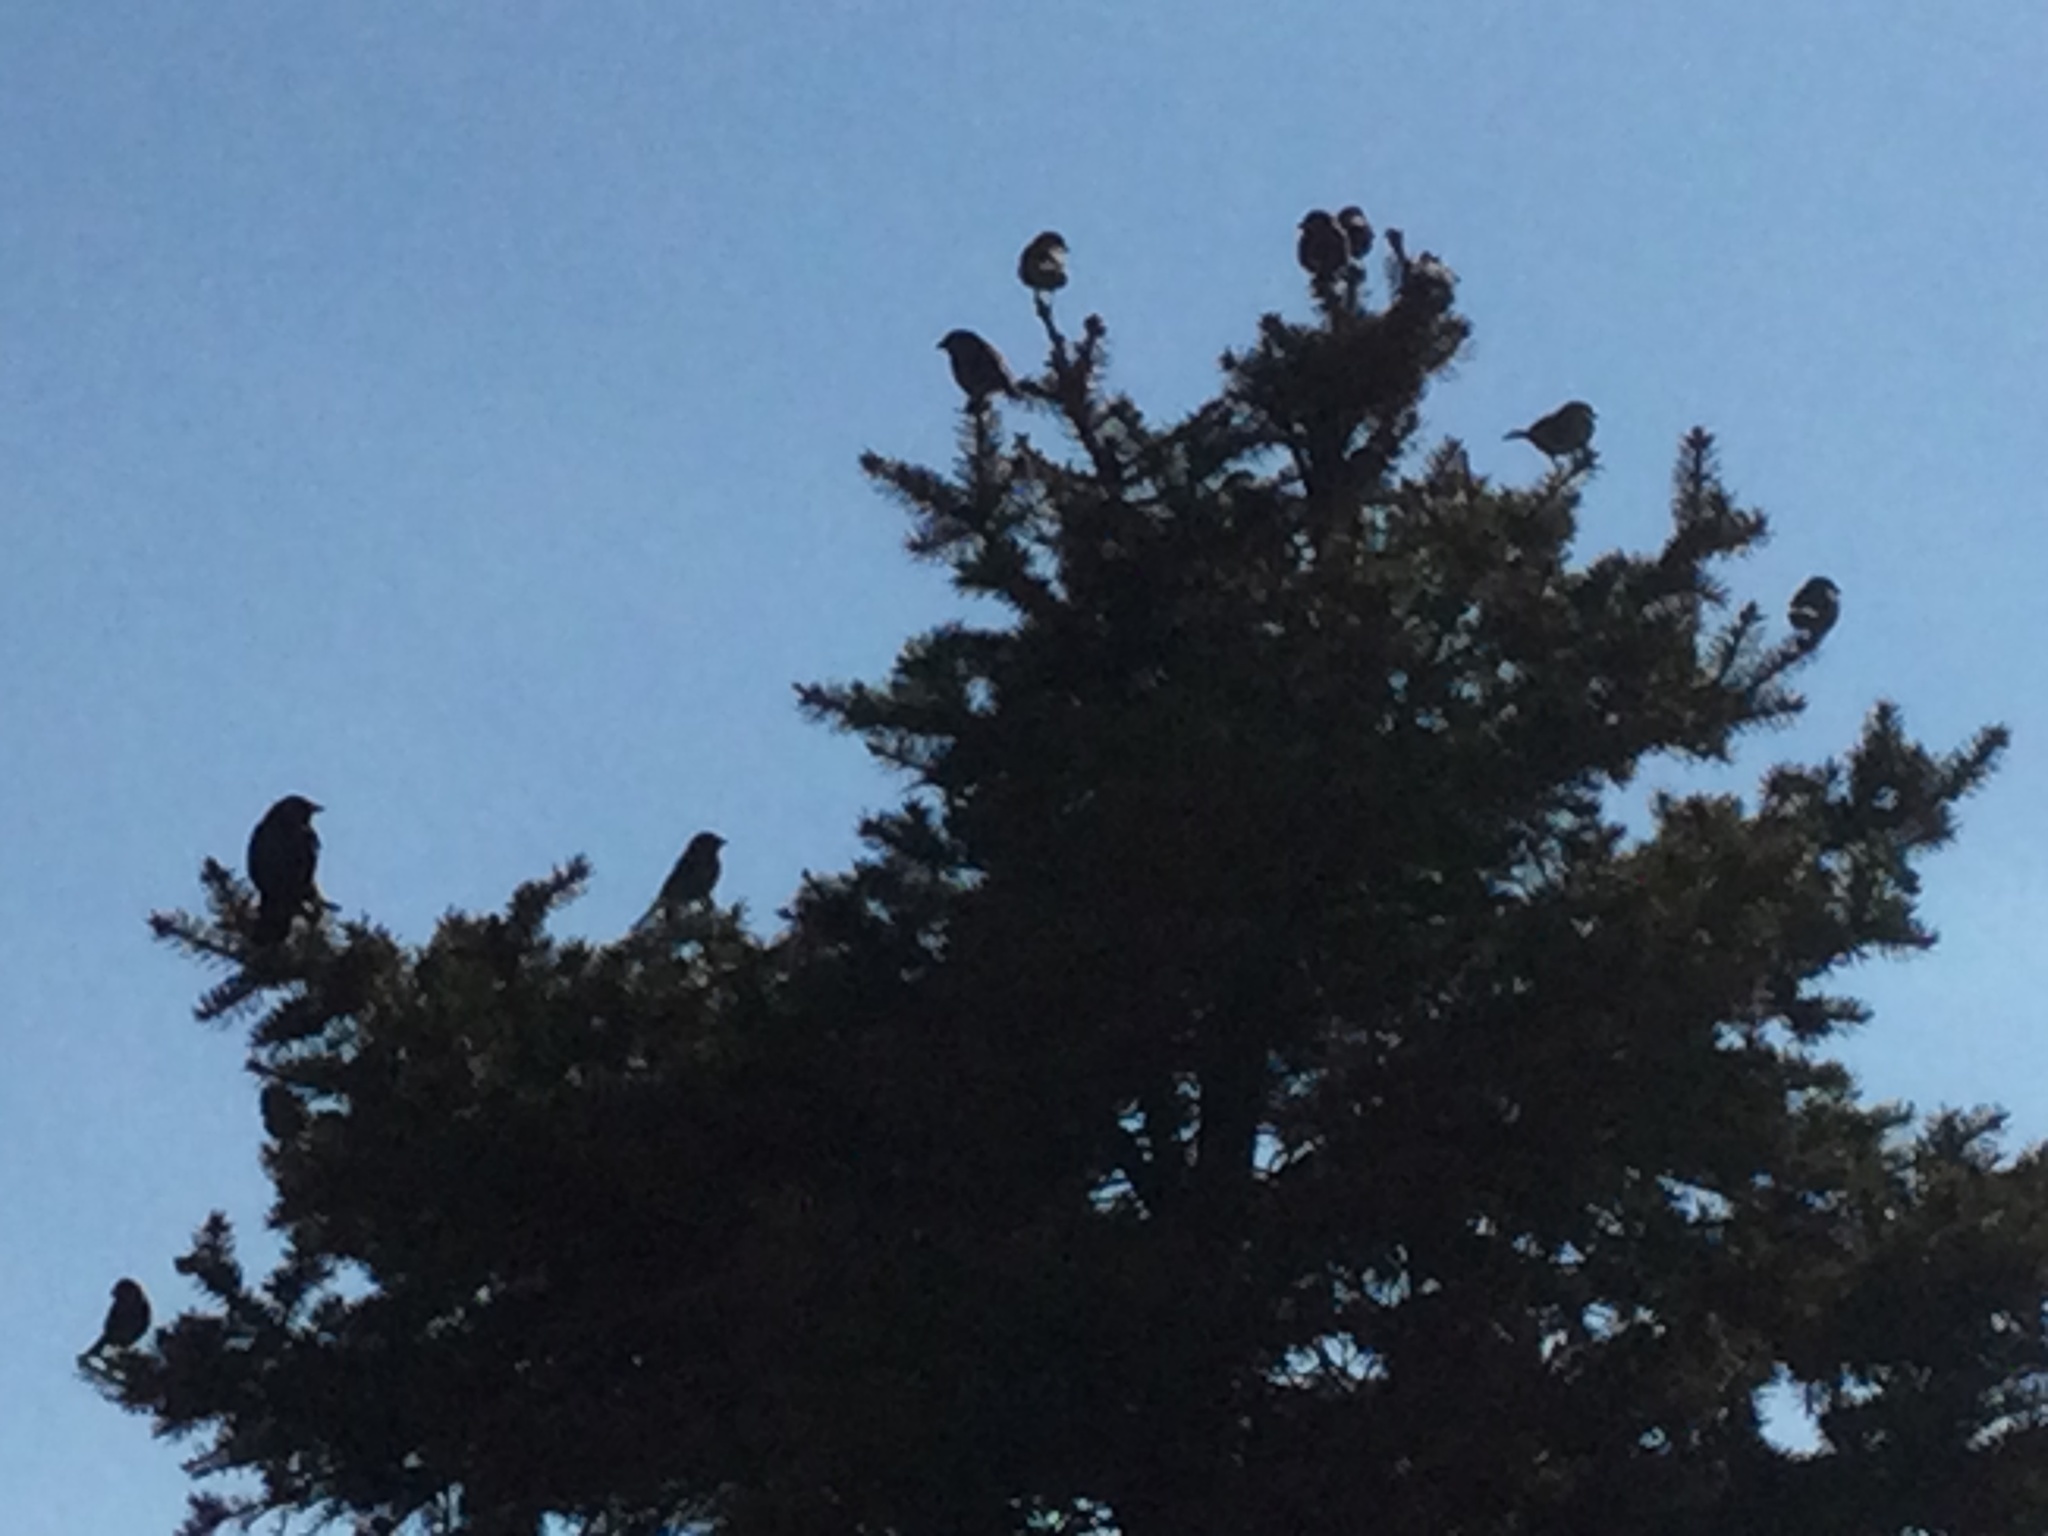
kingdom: Animalia
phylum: Chordata
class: Aves
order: Passeriformes
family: Corvidae
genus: Corvus
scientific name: Corvus brachyrhynchos
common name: American crow
